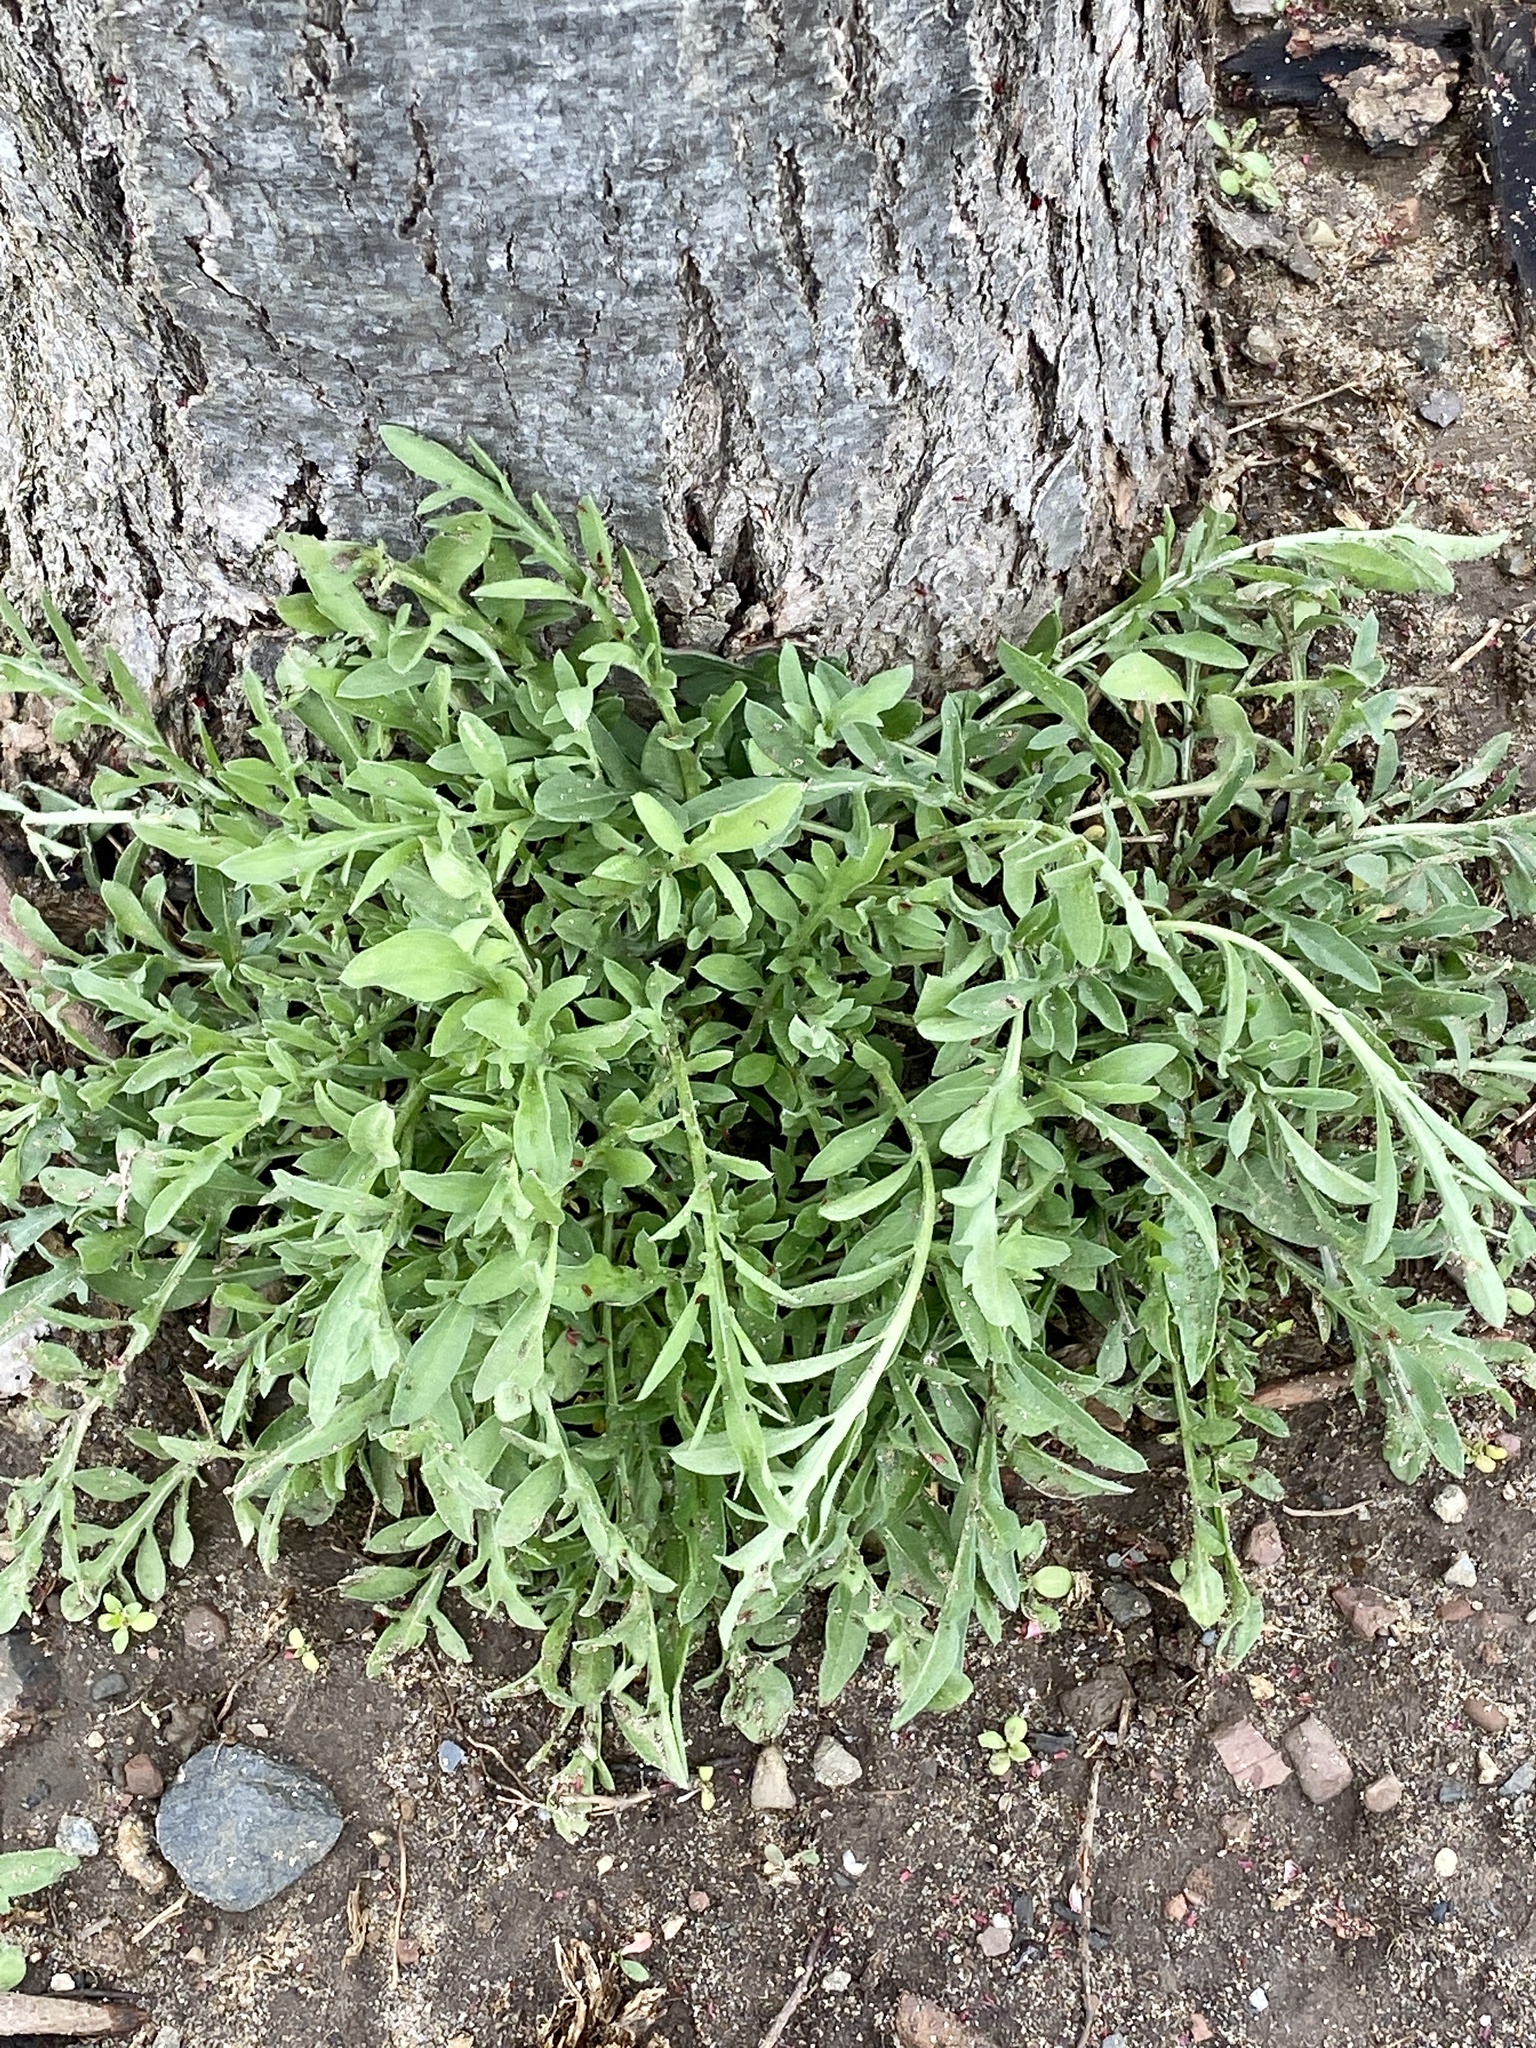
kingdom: Plantae
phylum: Tracheophyta
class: Magnoliopsida
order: Asterales
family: Asteraceae
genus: Centaurea
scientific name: Centaurea stoebe
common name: Spotted knapweed
